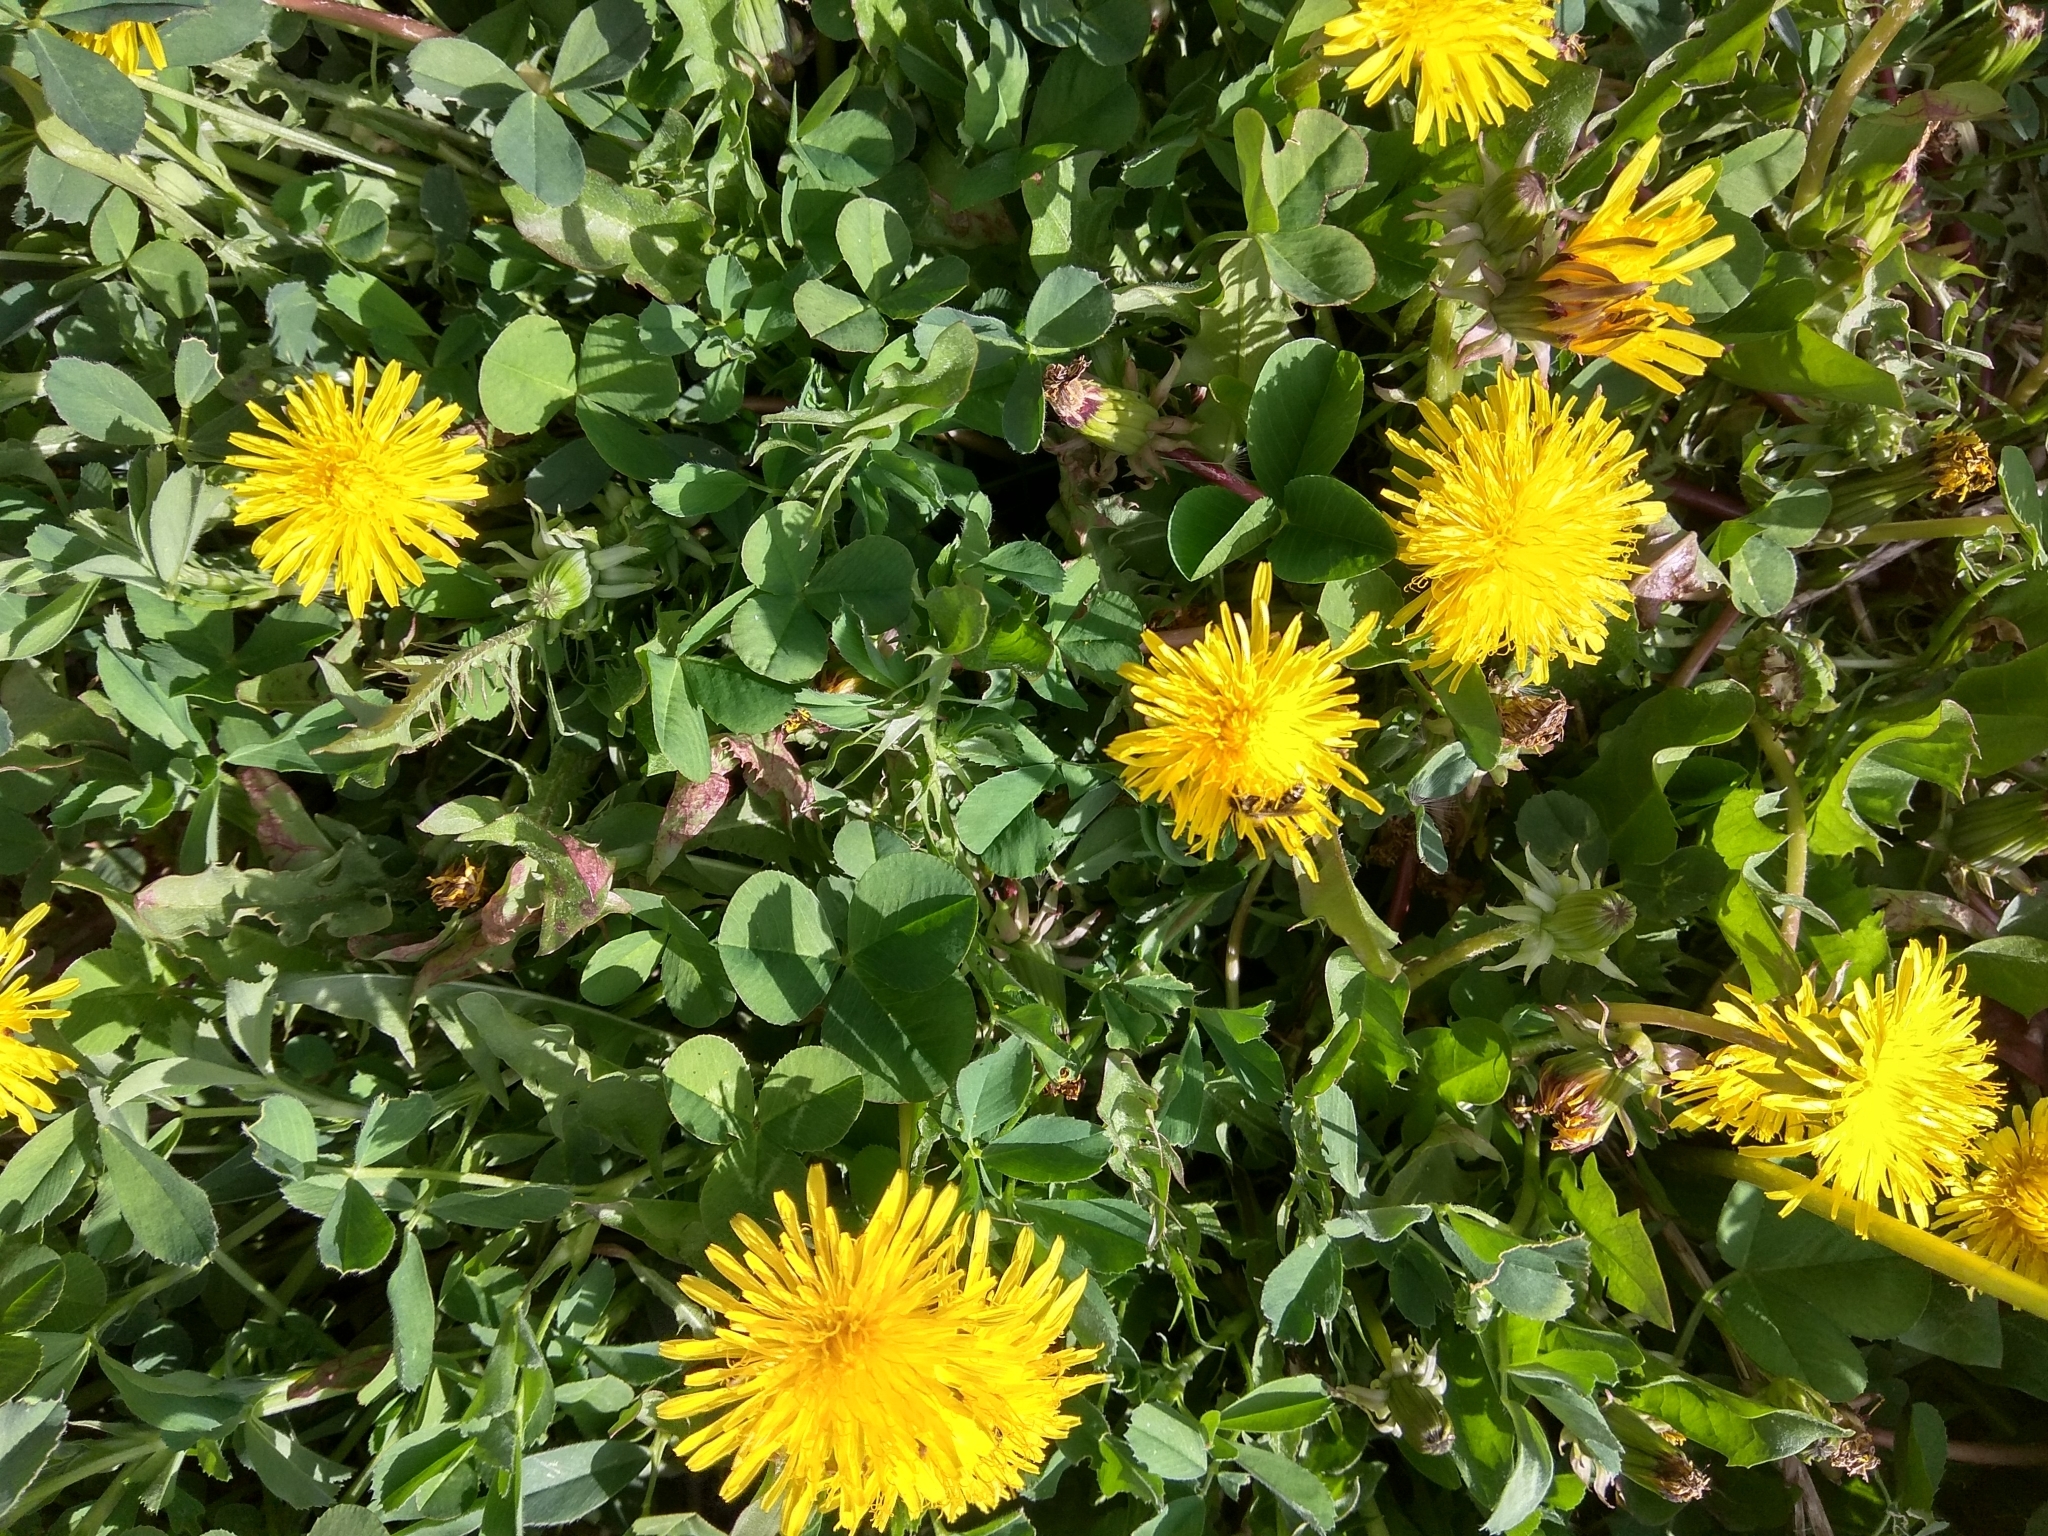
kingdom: Plantae
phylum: Tracheophyta
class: Magnoliopsida
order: Asterales
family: Asteraceae
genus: Taraxacum
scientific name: Taraxacum officinale
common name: Common dandelion
